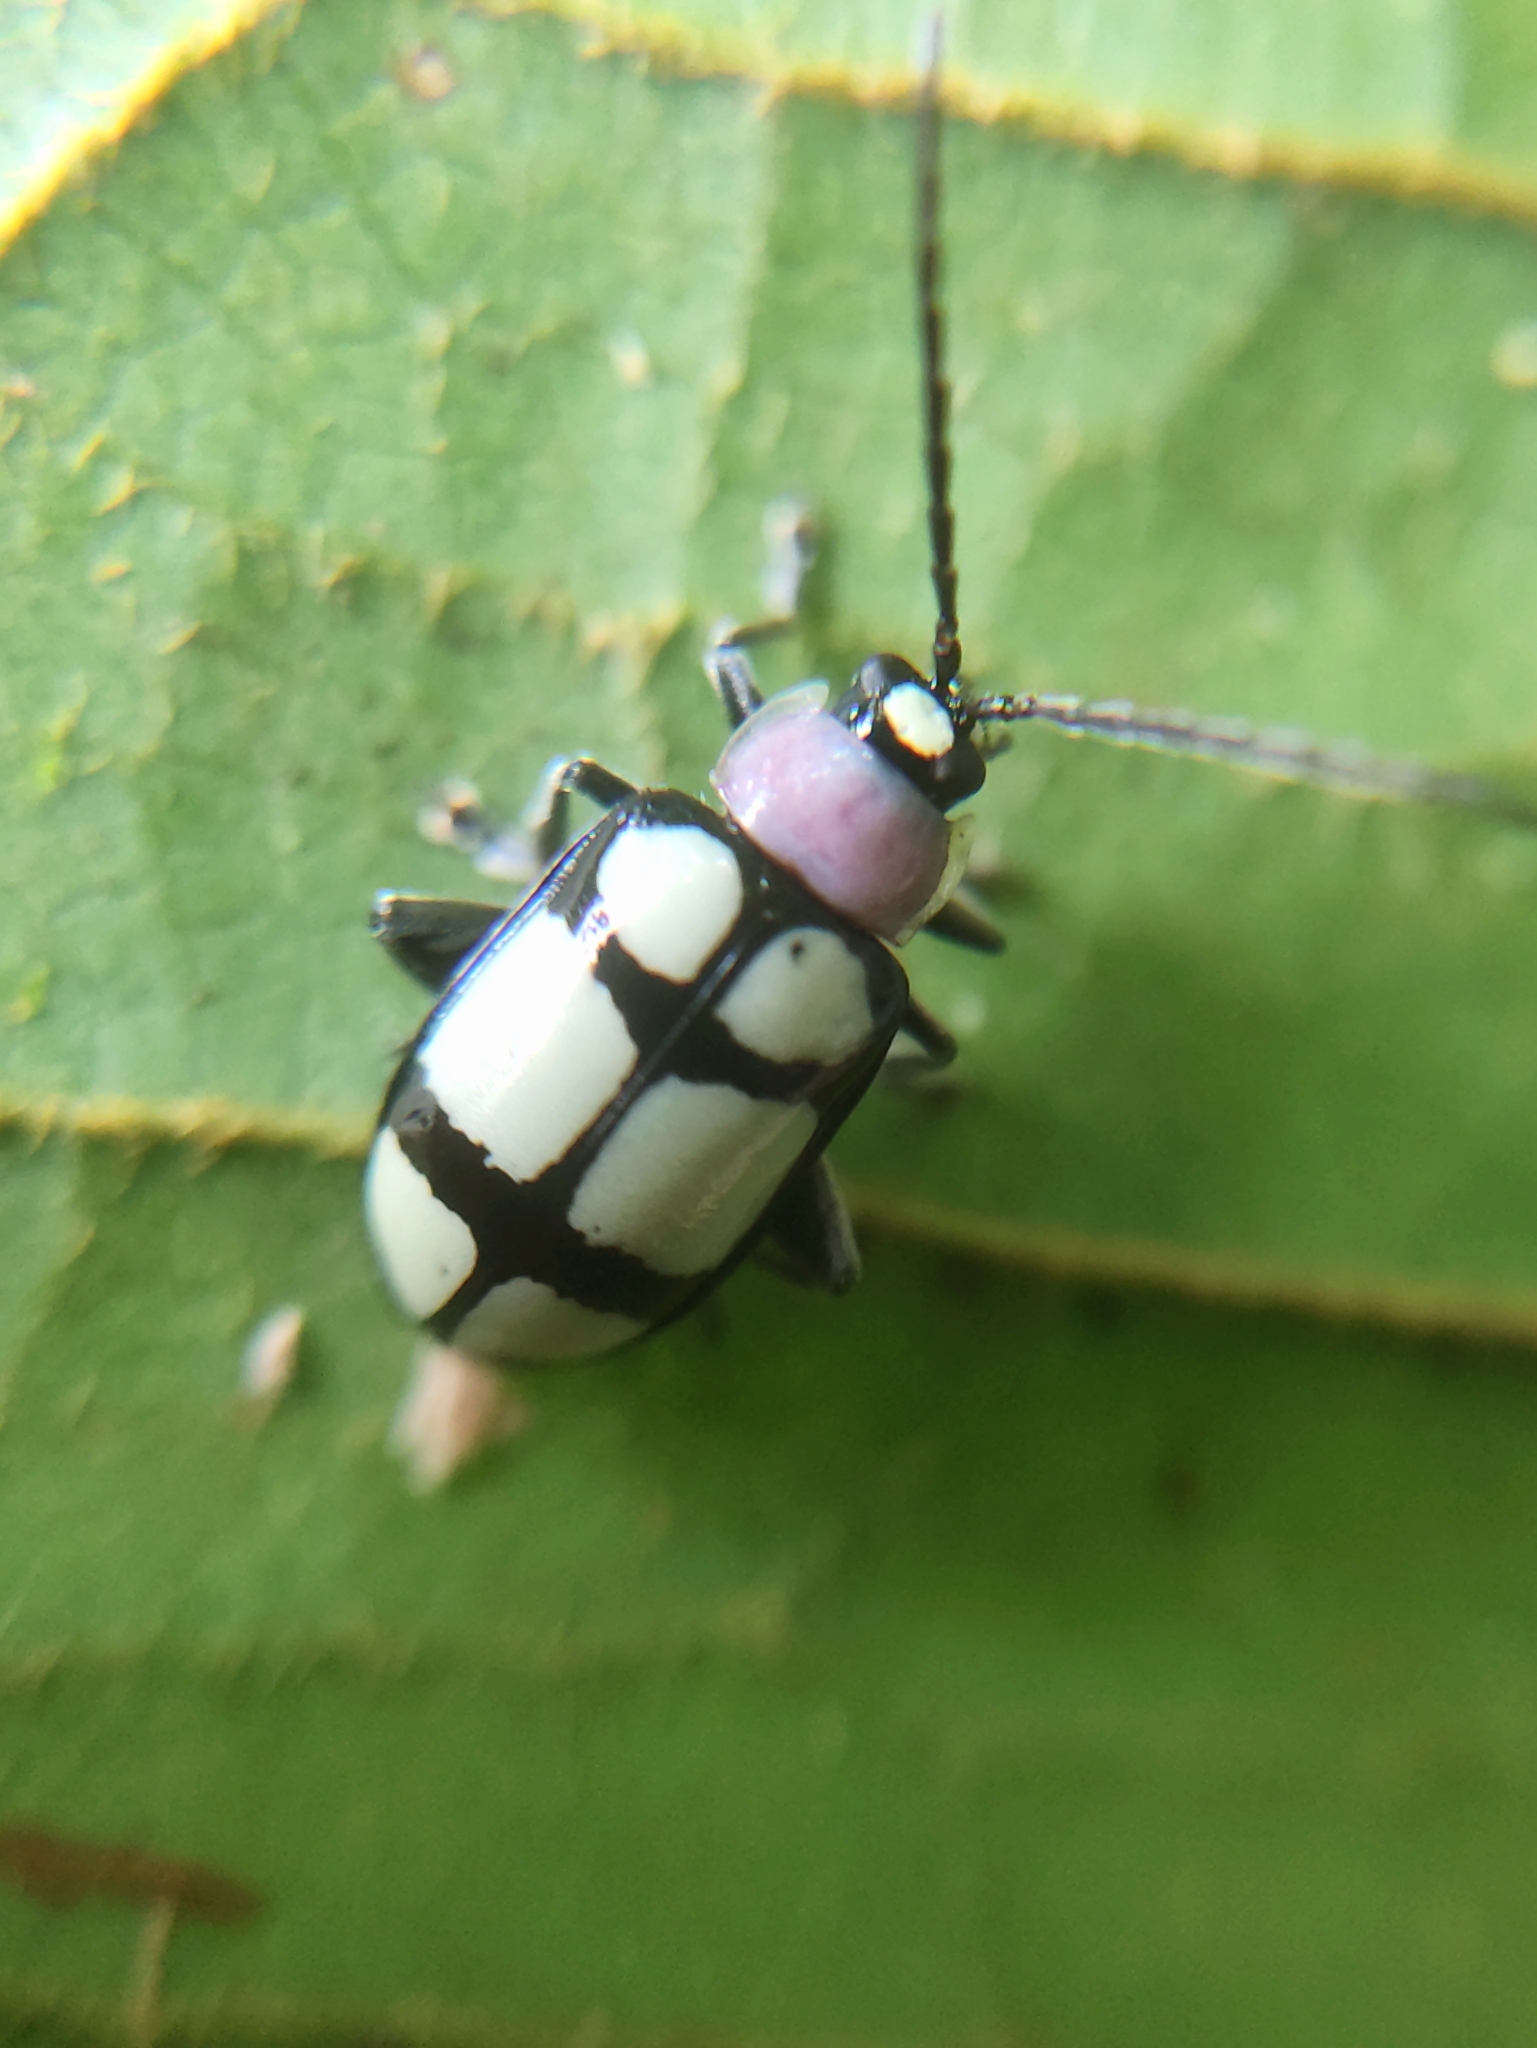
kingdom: Animalia
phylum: Arthropoda
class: Insecta
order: Coleoptera
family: Chrysomelidae
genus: Omophoita
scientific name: Omophoita
